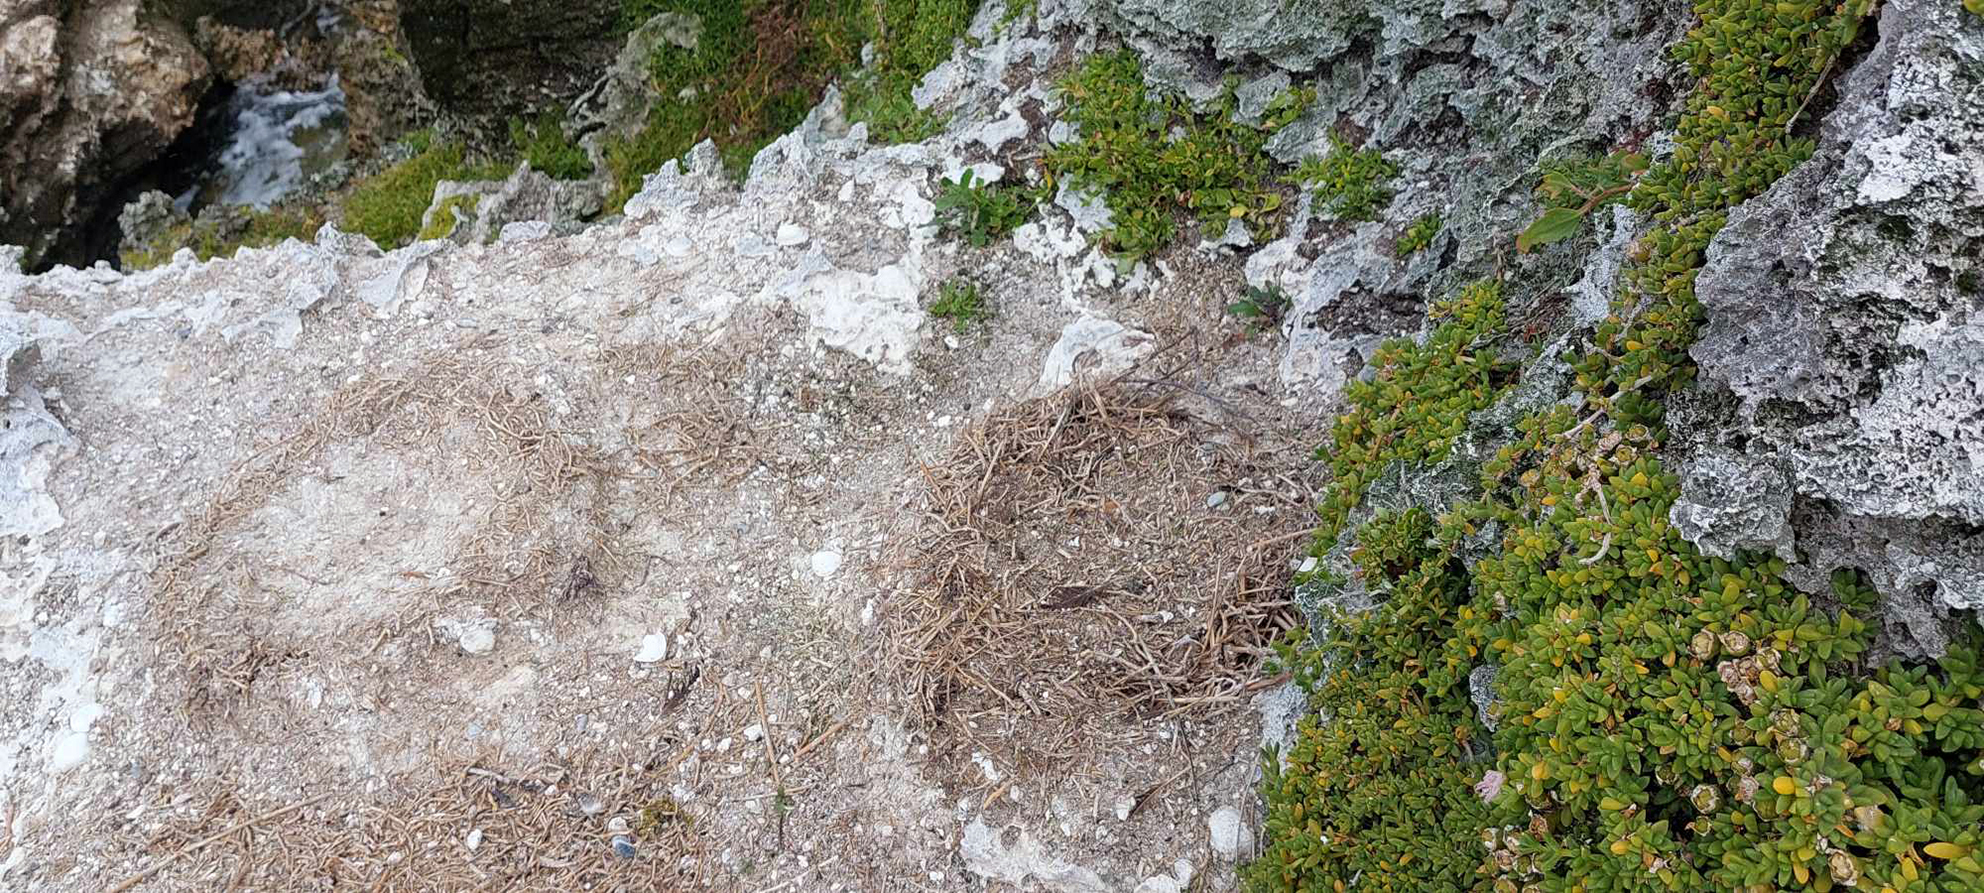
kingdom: Animalia
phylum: Chordata
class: Aves
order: Suliformes
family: Phalacrocoracidae
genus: Leucocarbo
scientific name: Leucocarbo onslowi
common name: Chatham shag
